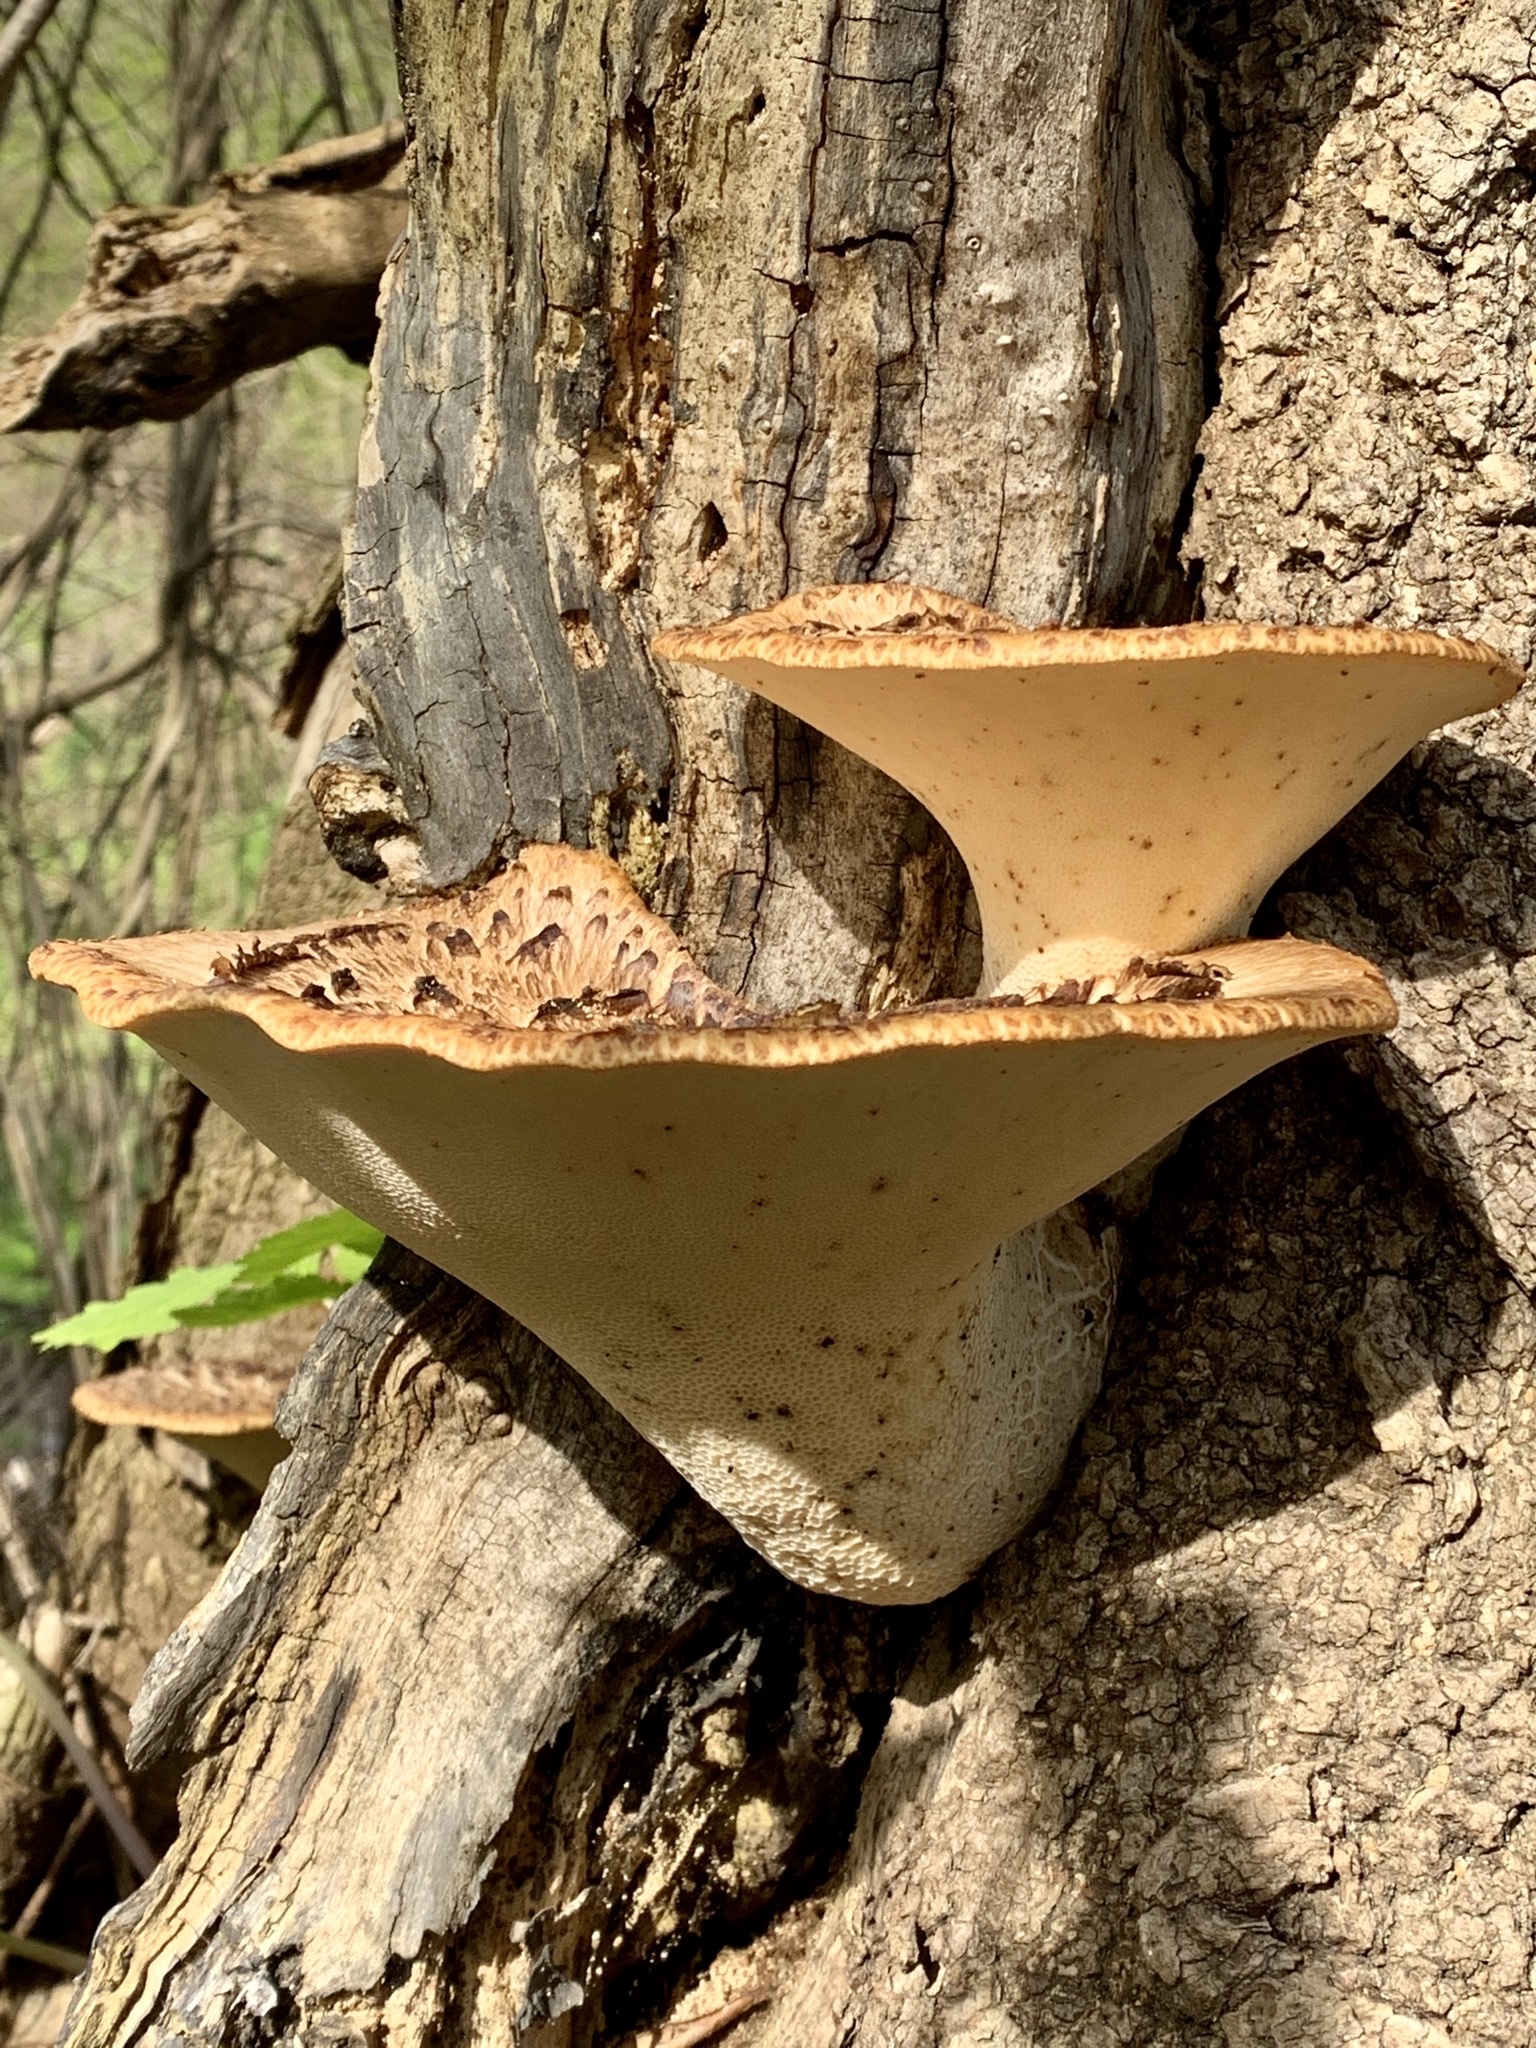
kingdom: Fungi
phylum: Basidiomycota
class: Agaricomycetes
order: Polyporales
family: Polyporaceae
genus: Cerioporus
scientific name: Cerioporus squamosus
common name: Dryad's saddle
